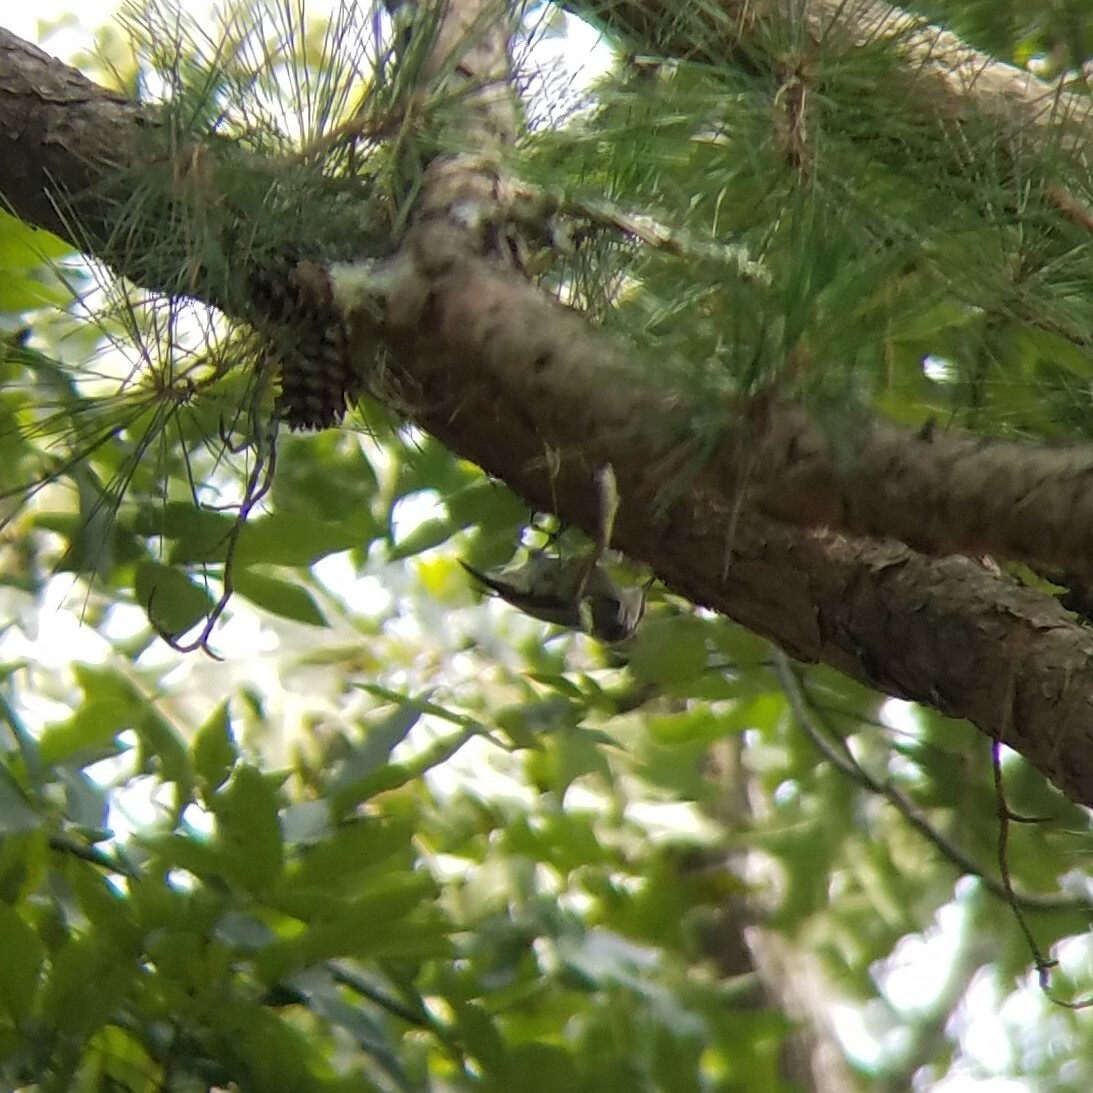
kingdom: Animalia
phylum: Chordata
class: Aves
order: Passeriformes
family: Sittidae
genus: Sitta
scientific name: Sitta pusilla
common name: Brown-headed nuthatch
